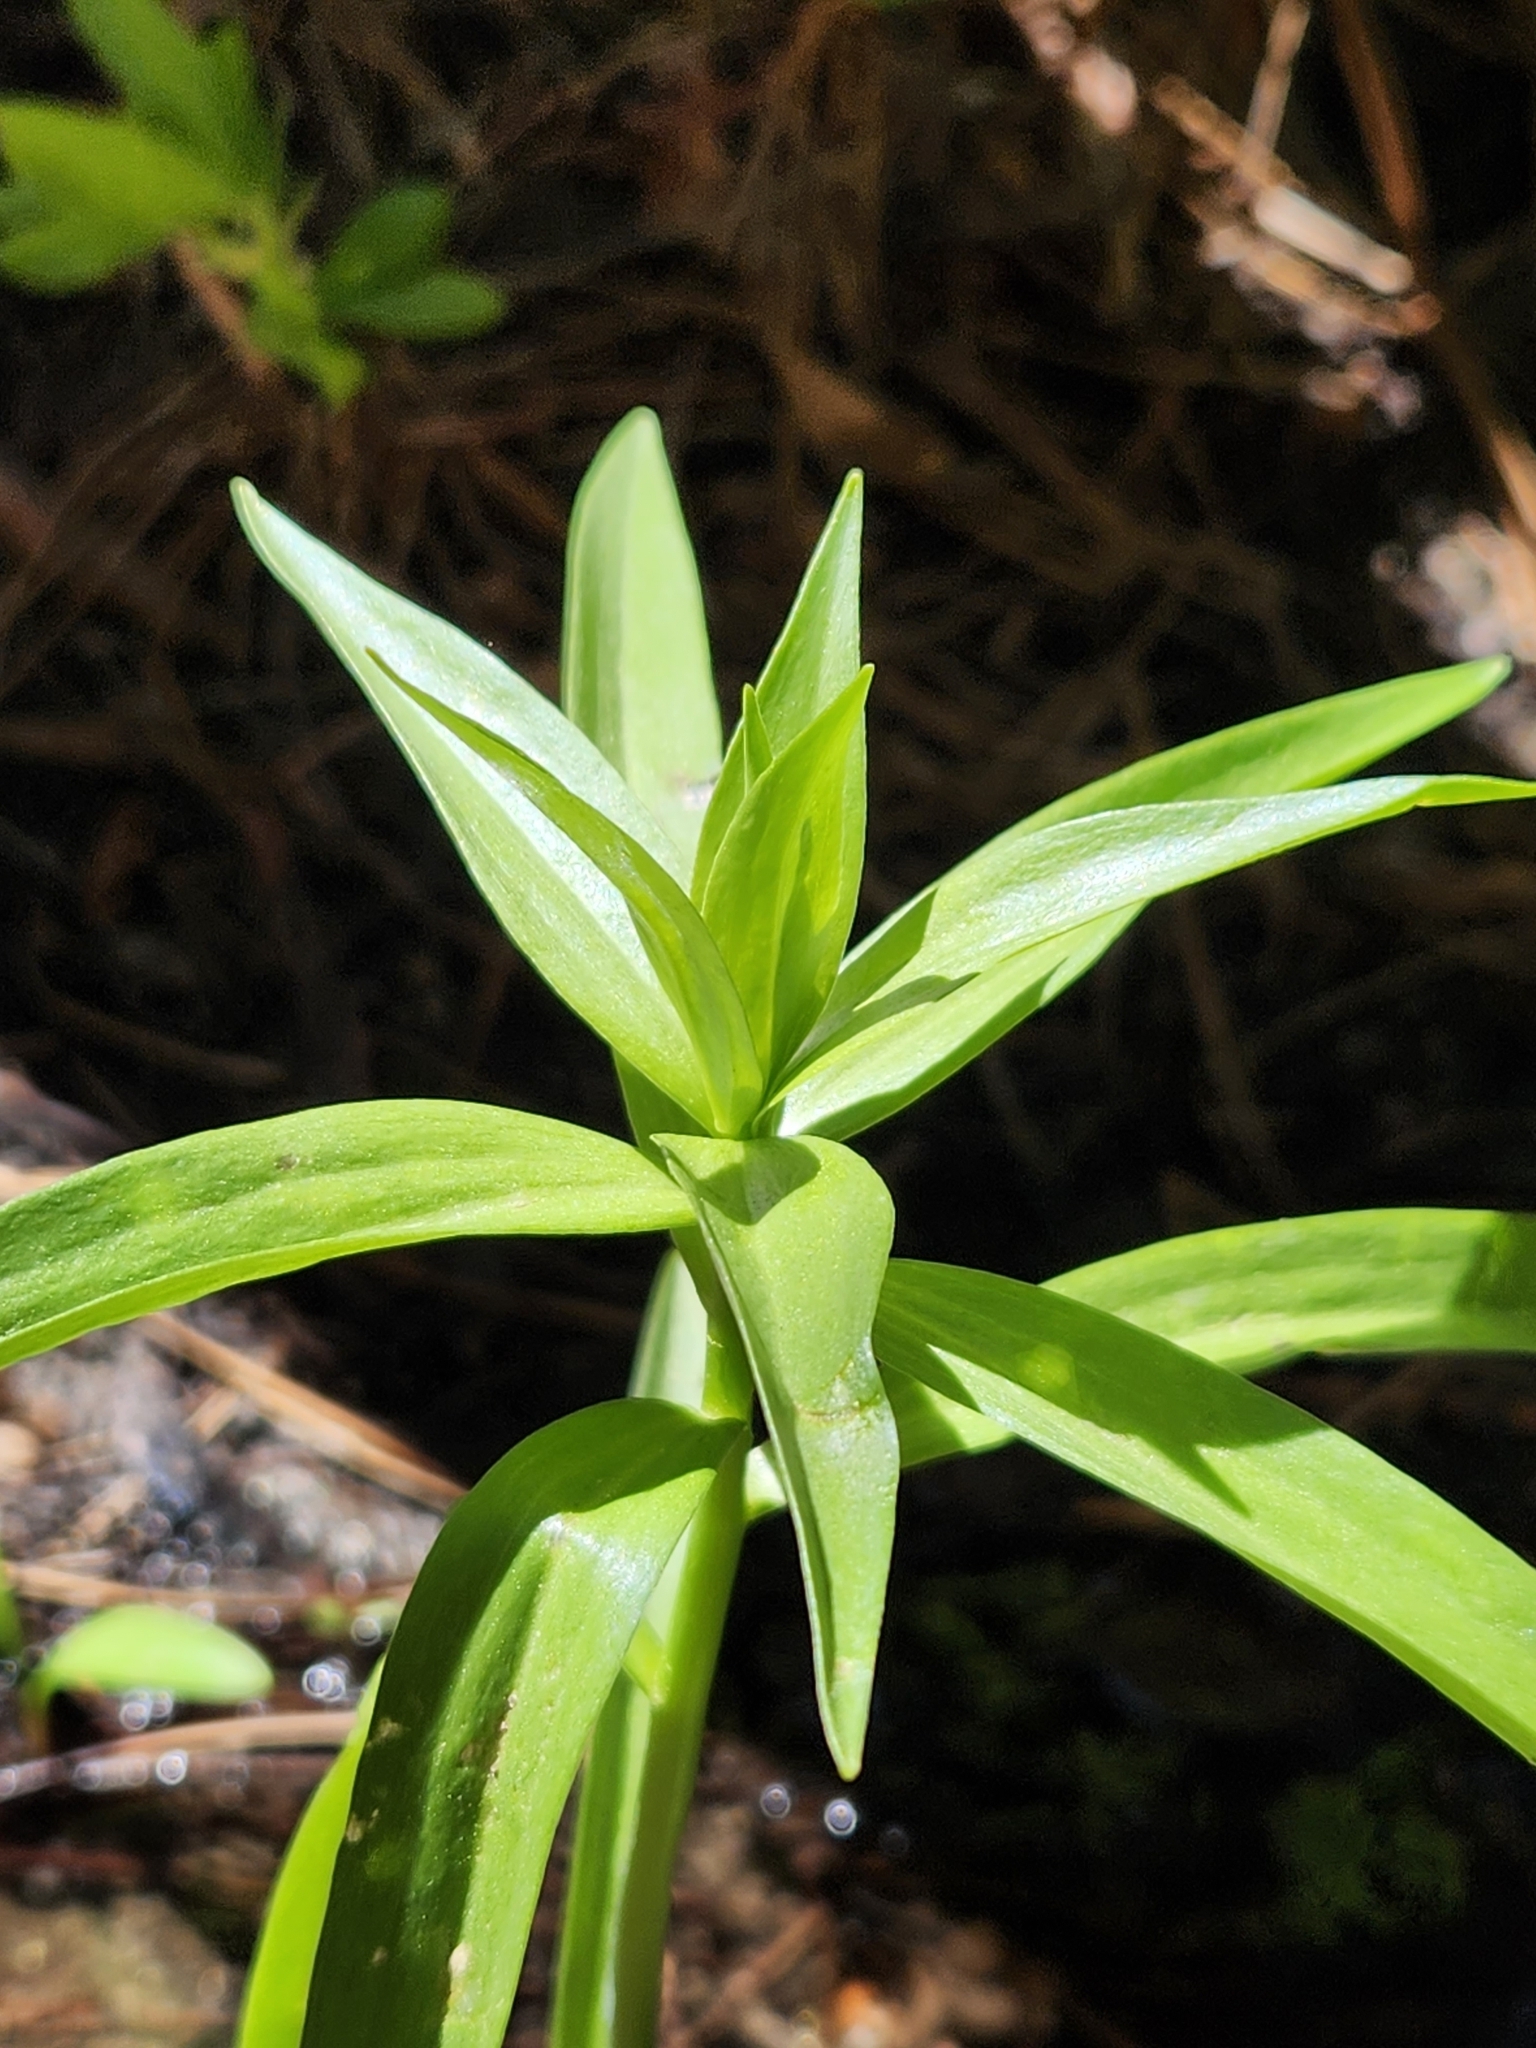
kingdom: Plantae
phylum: Tracheophyta
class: Liliopsida
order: Liliales
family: Liliaceae
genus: Lilium
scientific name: Lilium parryi
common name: Lemon lily
